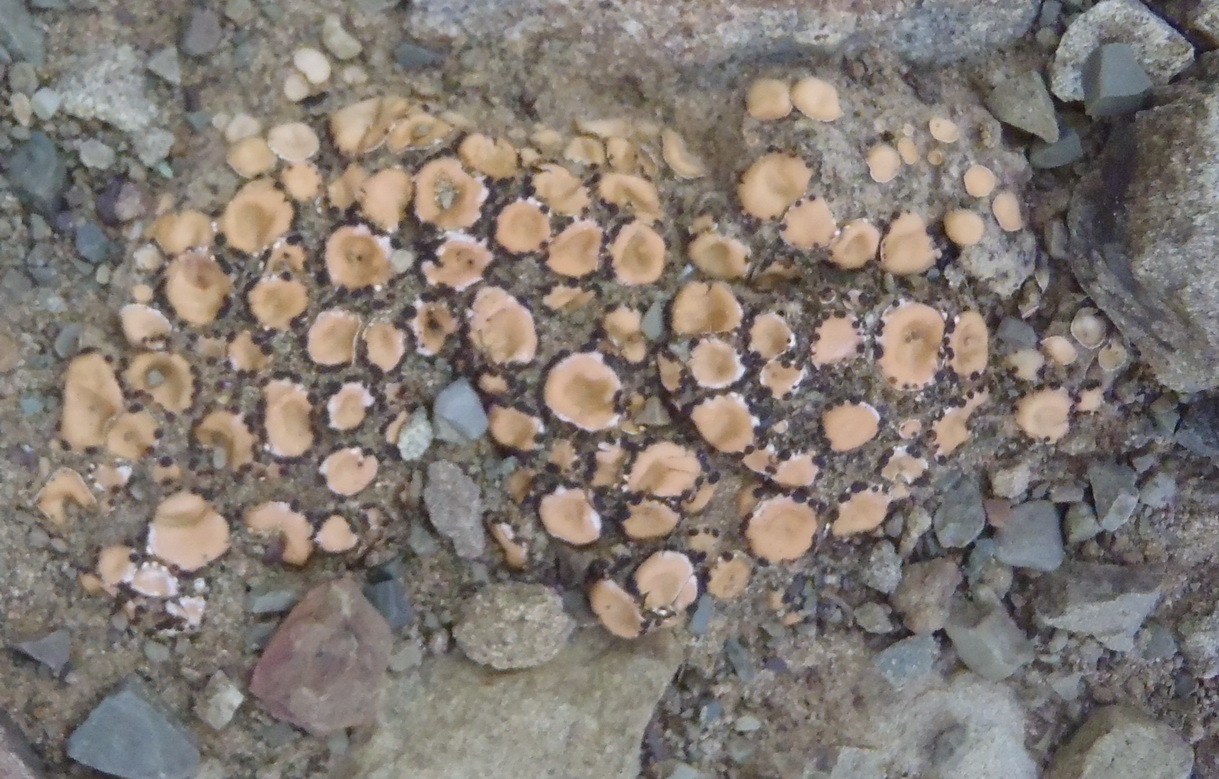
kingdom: Fungi
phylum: Ascomycota
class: Lecanoromycetes
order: Lecanorales
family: Psoraceae
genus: Psora
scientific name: Psora crenata
